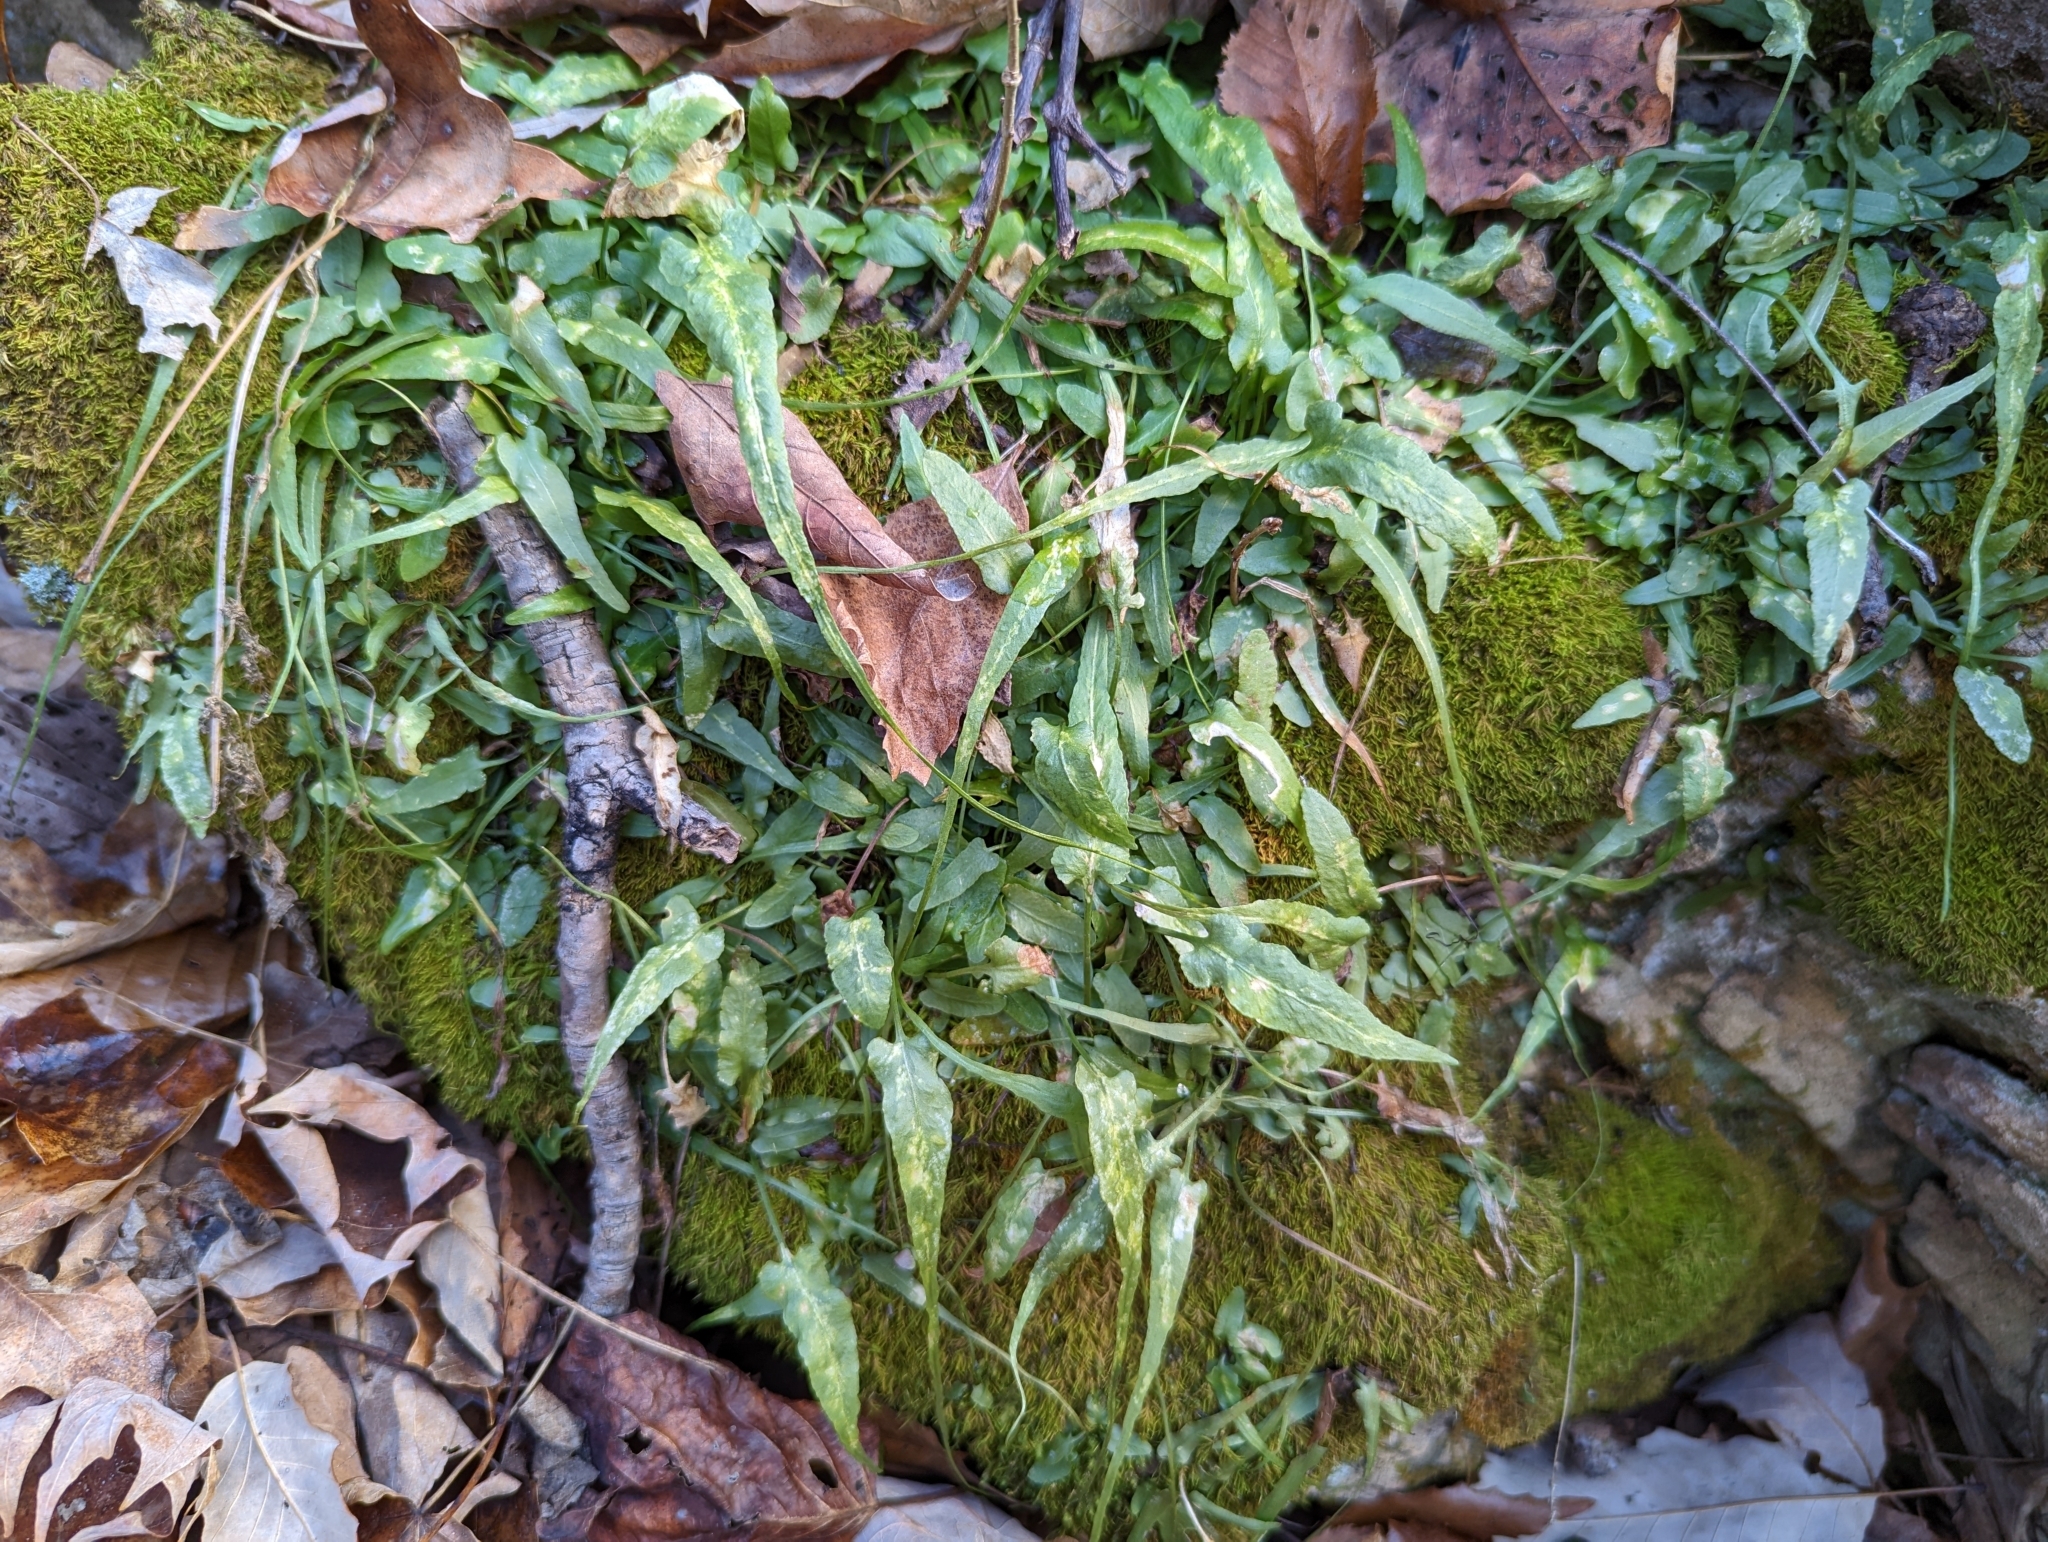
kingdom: Plantae
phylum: Tracheophyta
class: Polypodiopsida
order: Polypodiales
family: Aspleniaceae
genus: Asplenium
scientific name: Asplenium rhizophyllum
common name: Walking fern
